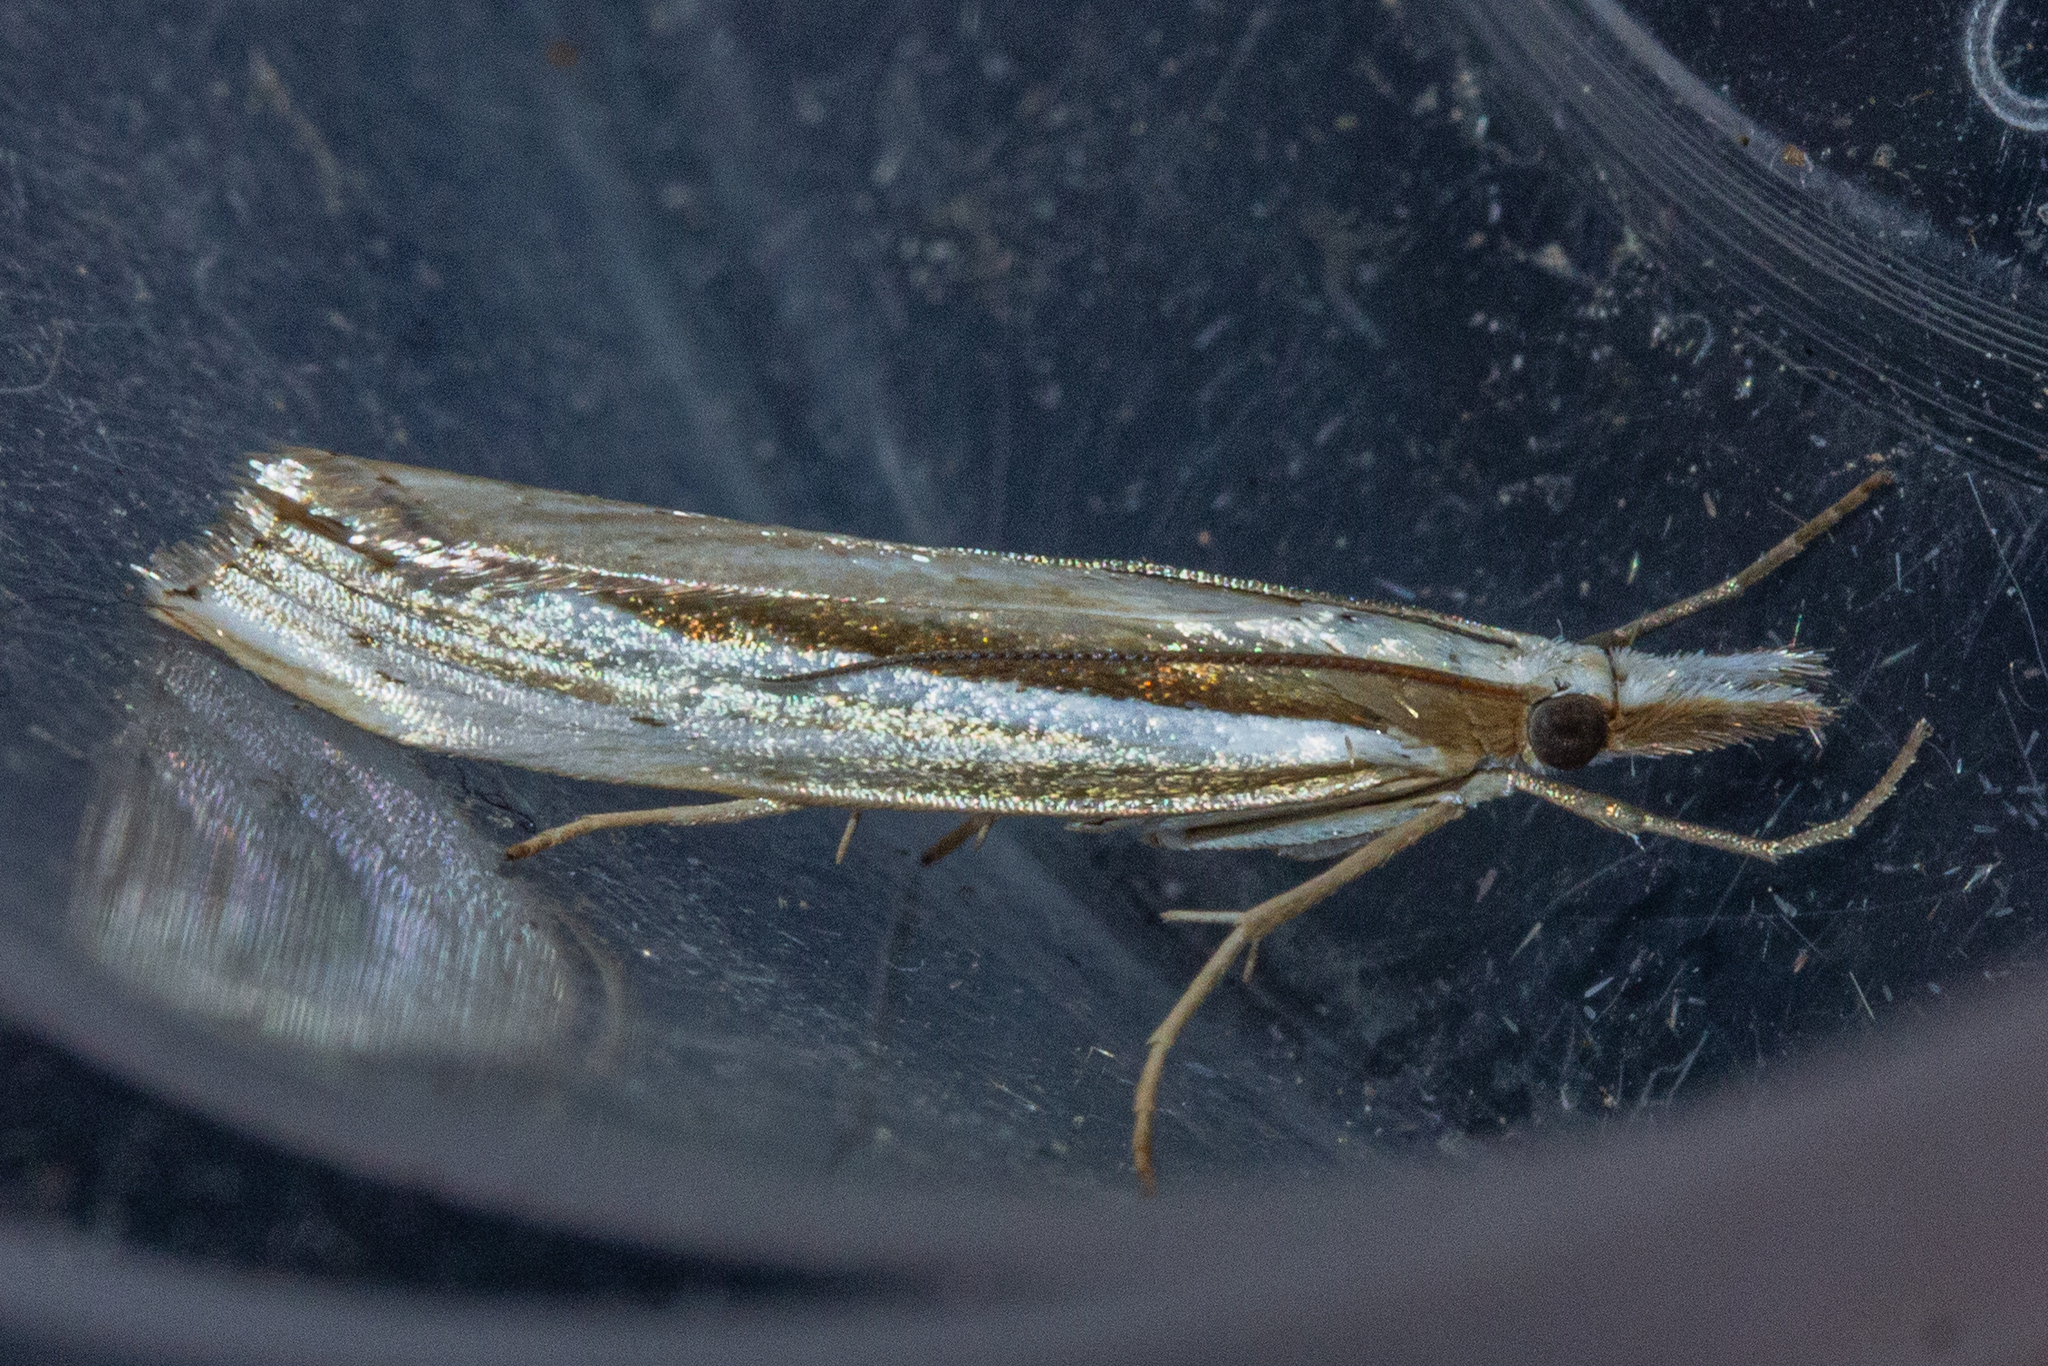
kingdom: Animalia
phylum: Arthropoda
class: Insecta
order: Lepidoptera
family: Crambidae
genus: Orocrambus
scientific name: Orocrambus ramosellus
